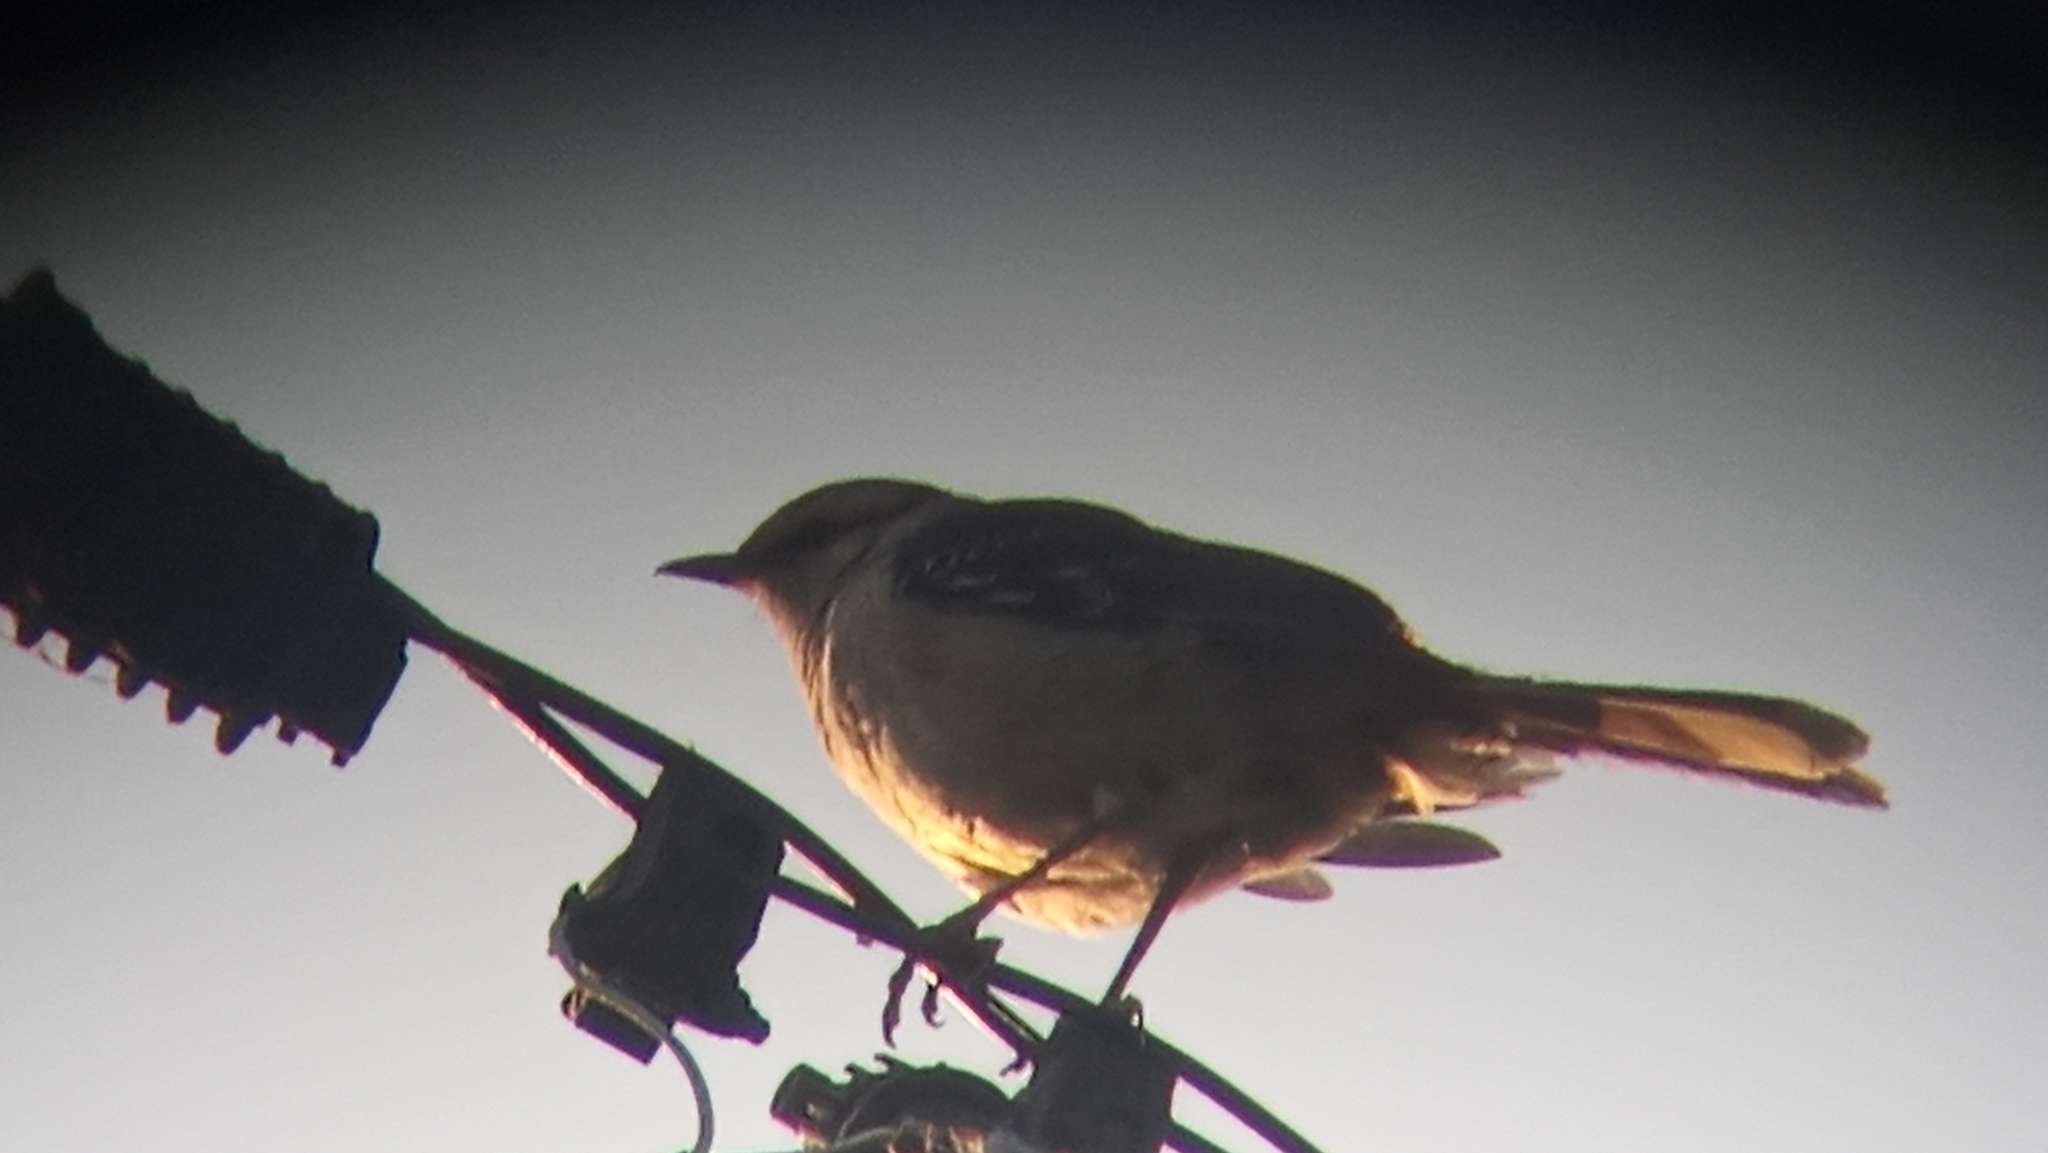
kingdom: Animalia
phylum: Chordata
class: Aves
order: Passeriformes
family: Mimidae
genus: Mimus
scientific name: Mimus saturninus
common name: Chalk-browed mockingbird
